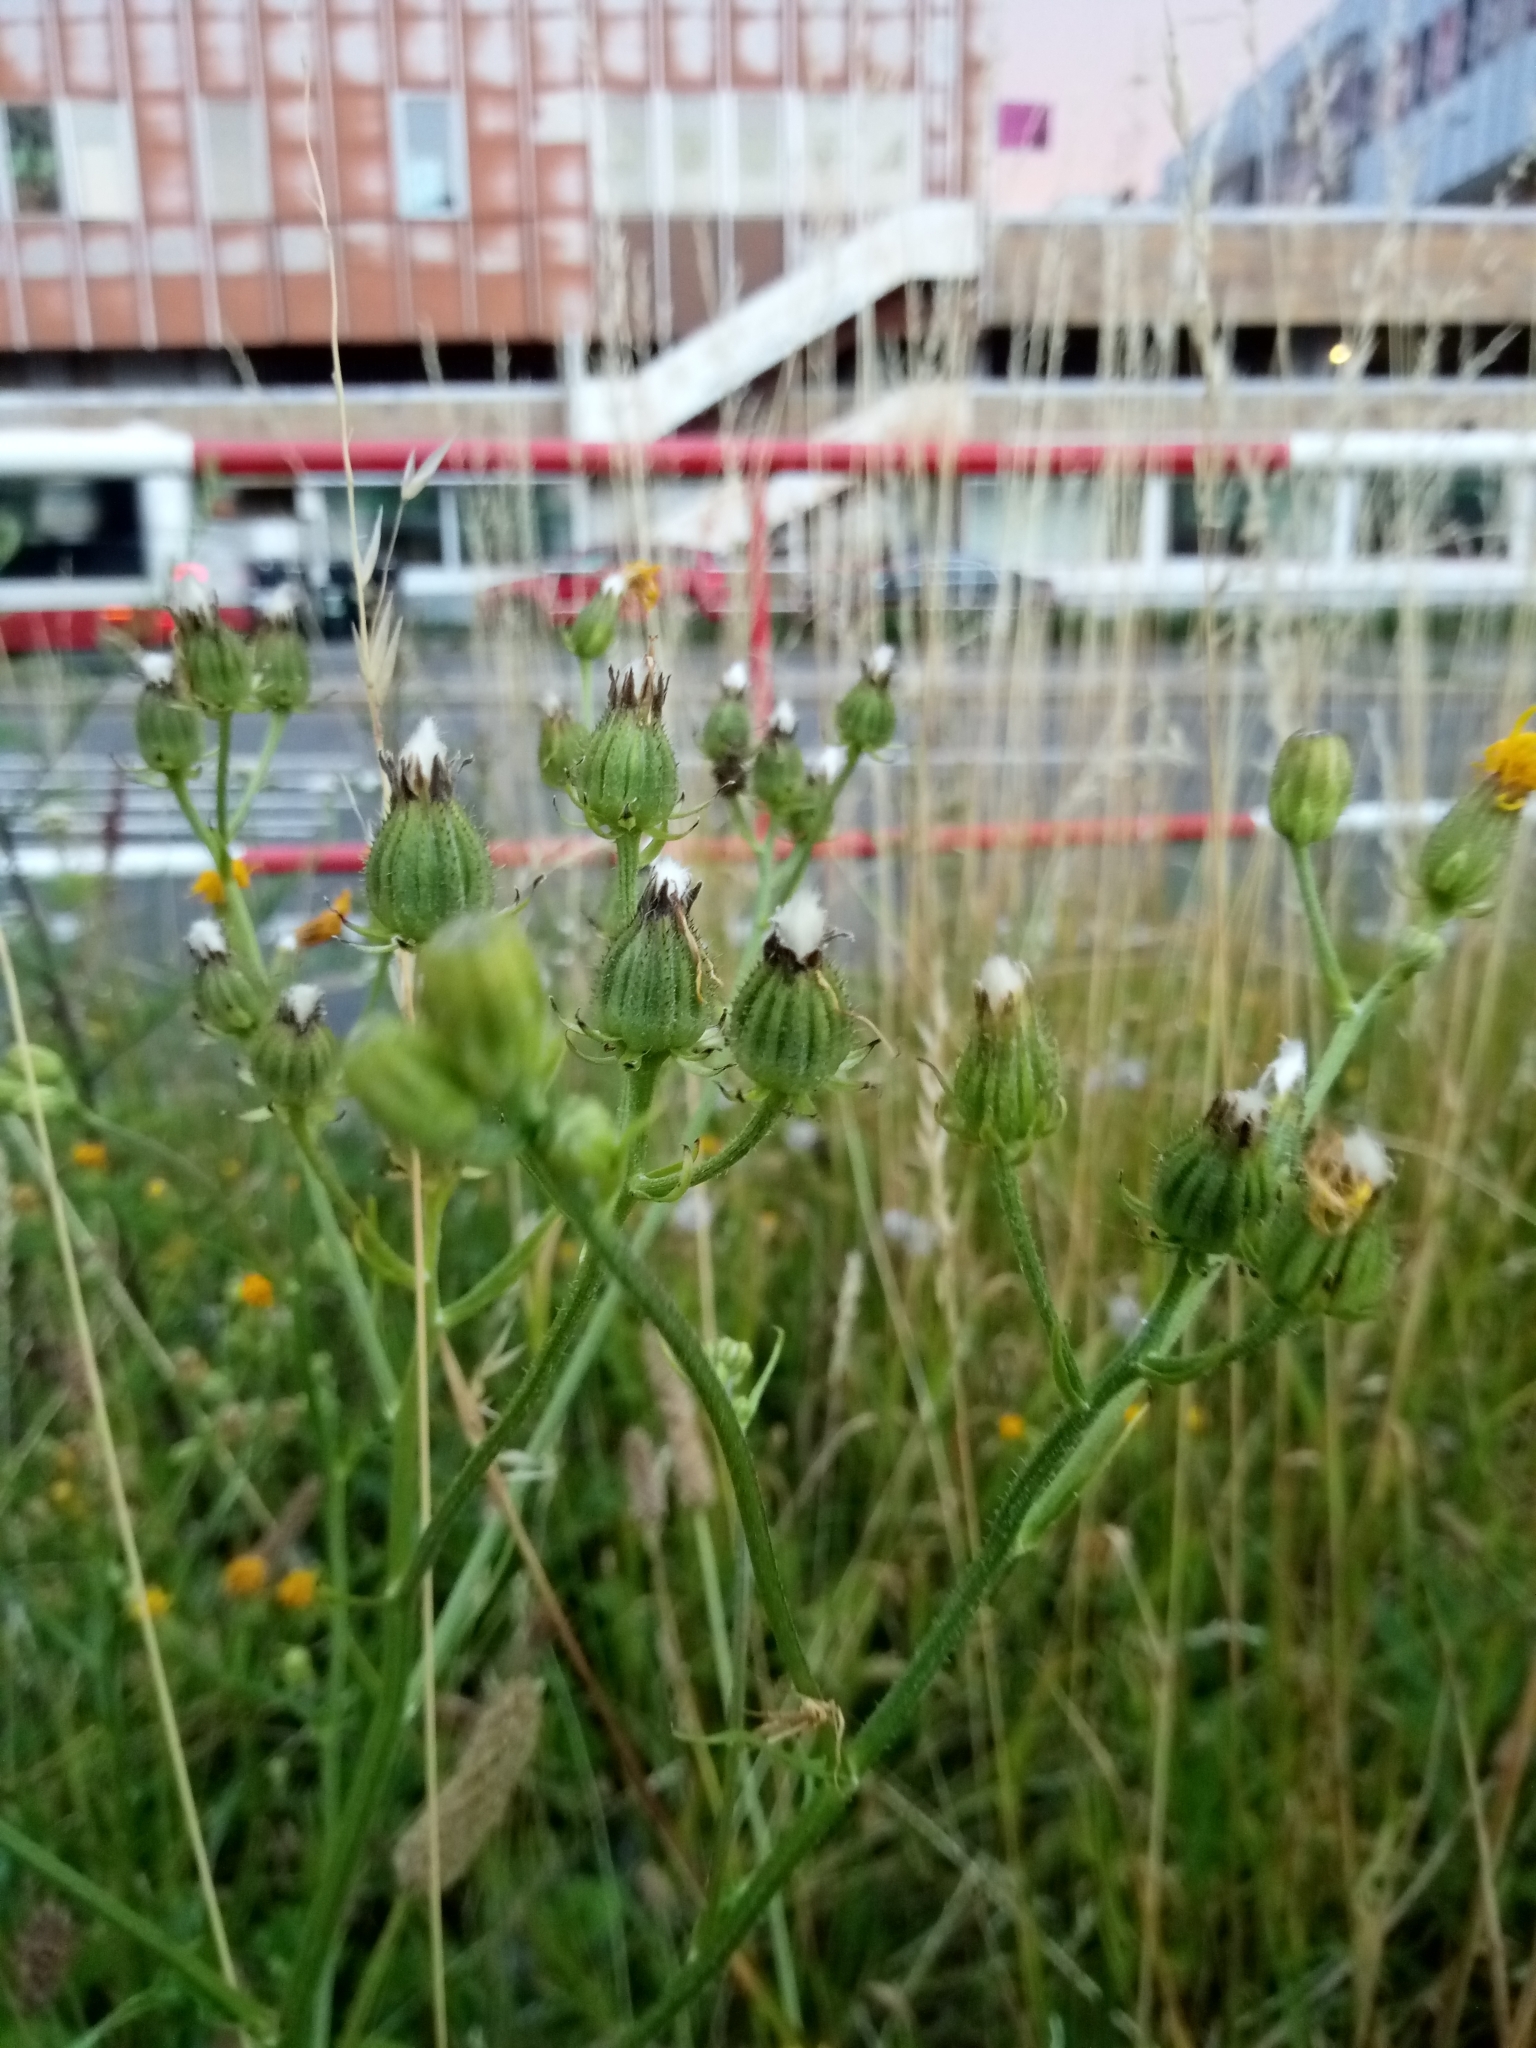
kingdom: Plantae
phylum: Tracheophyta
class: Magnoliopsida
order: Asterales
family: Asteraceae
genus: Crepis
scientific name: Crepis biennis
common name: Rough hawk's-beard
